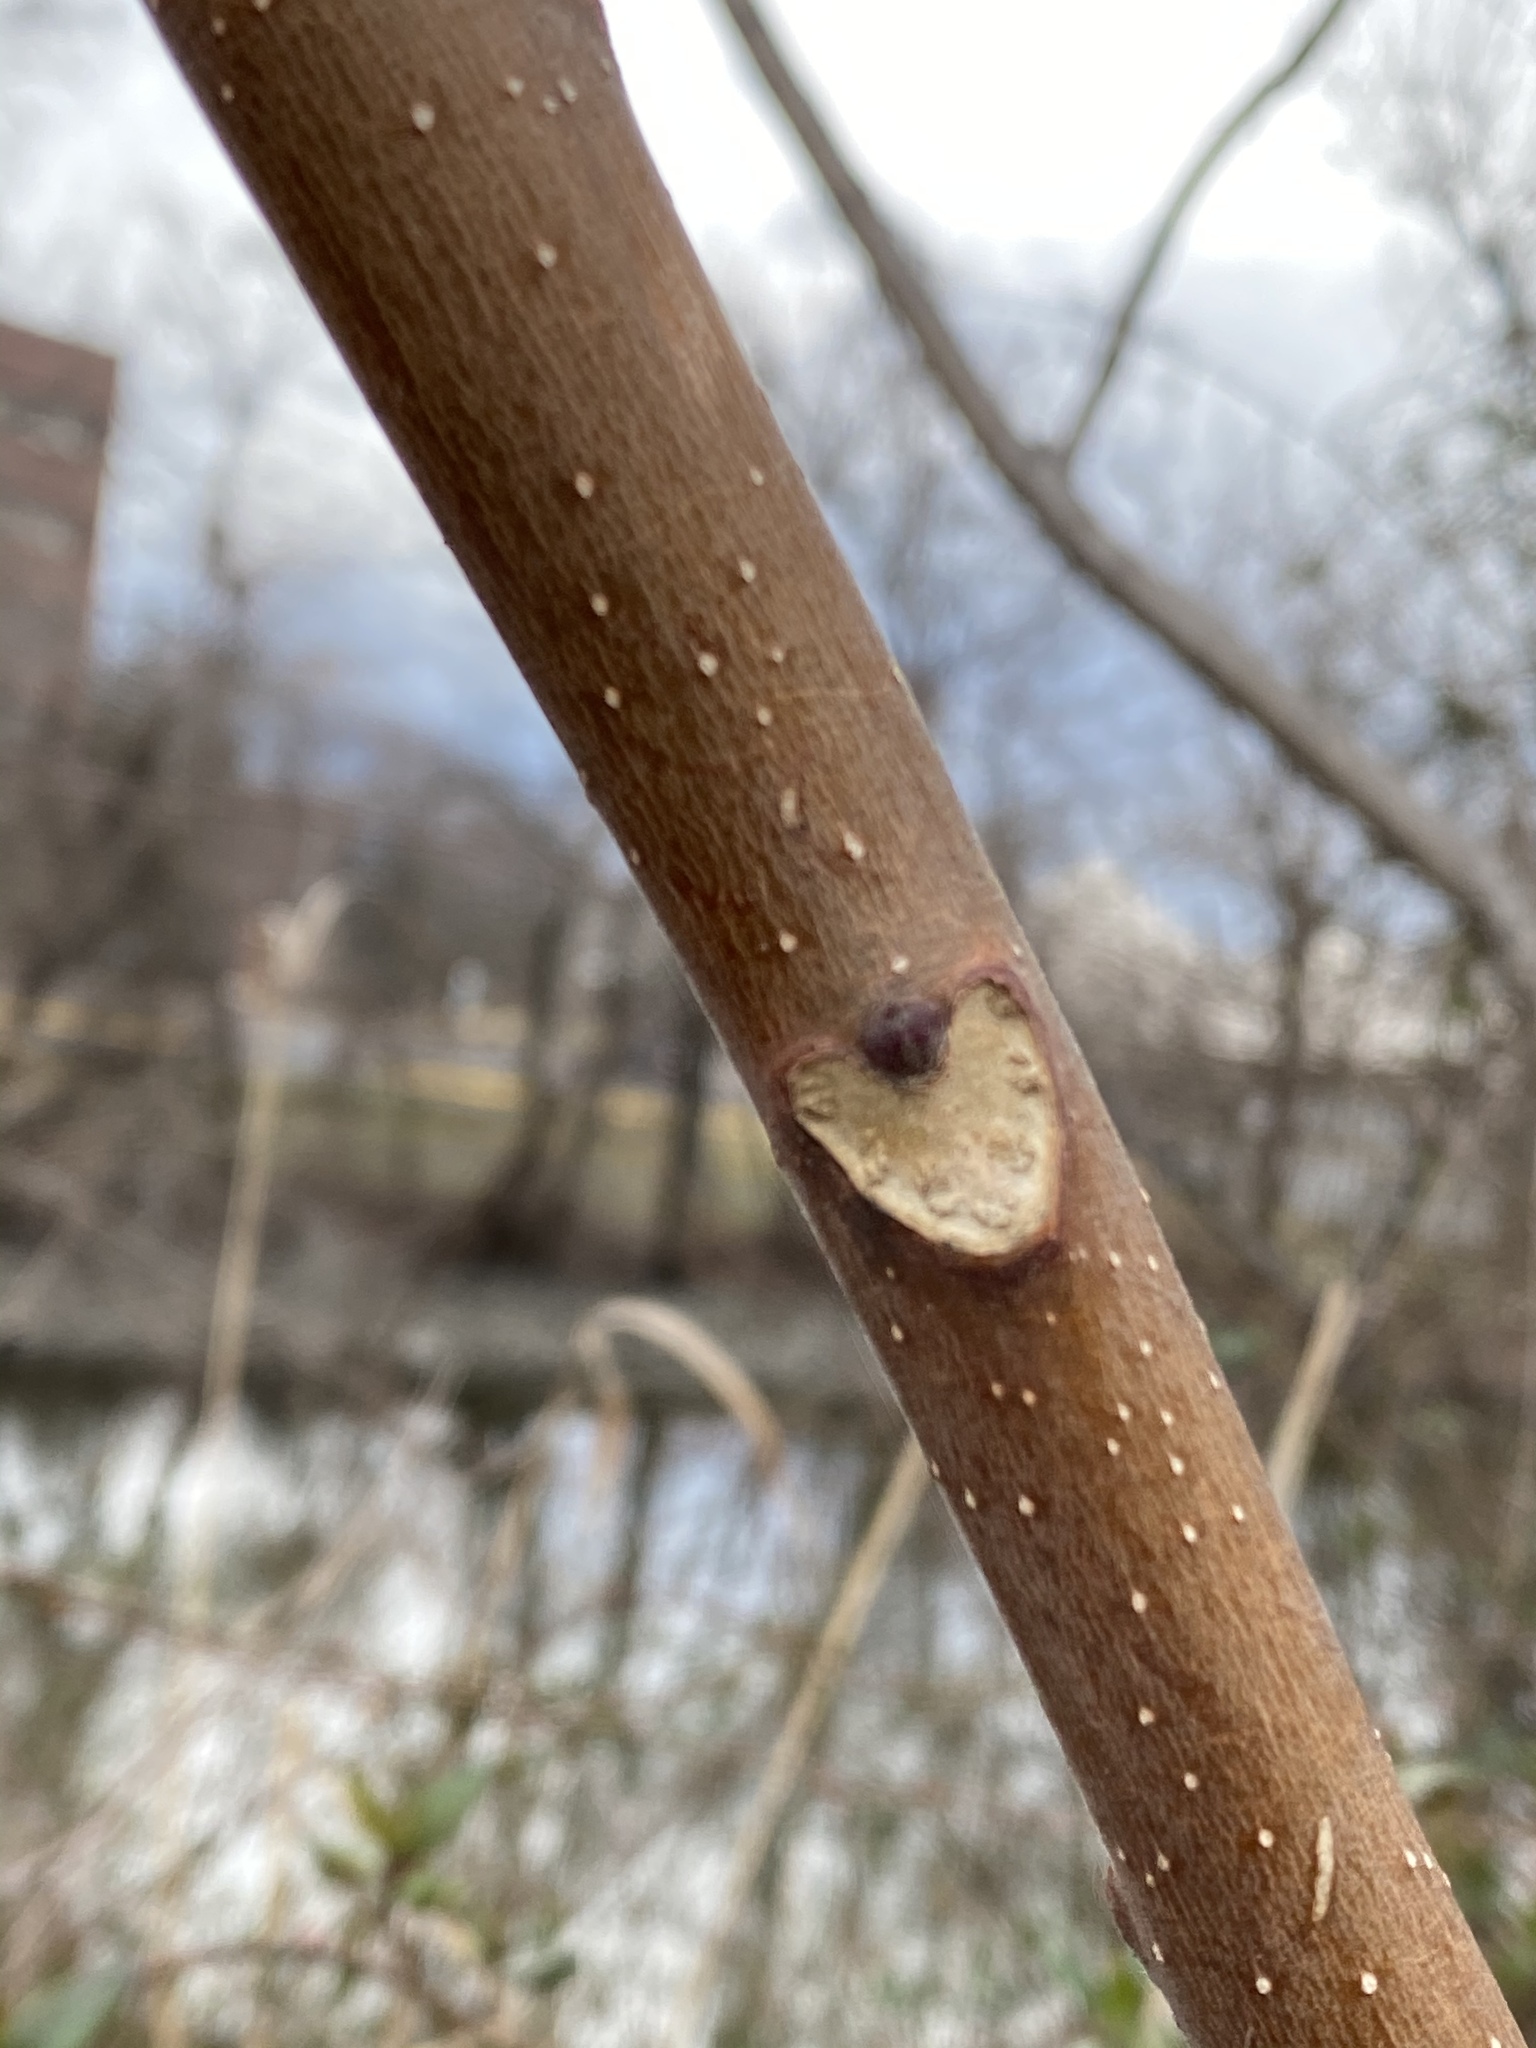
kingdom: Plantae
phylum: Tracheophyta
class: Magnoliopsida
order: Sapindales
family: Simaroubaceae
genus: Ailanthus
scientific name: Ailanthus altissima
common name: Tree-of-heaven
